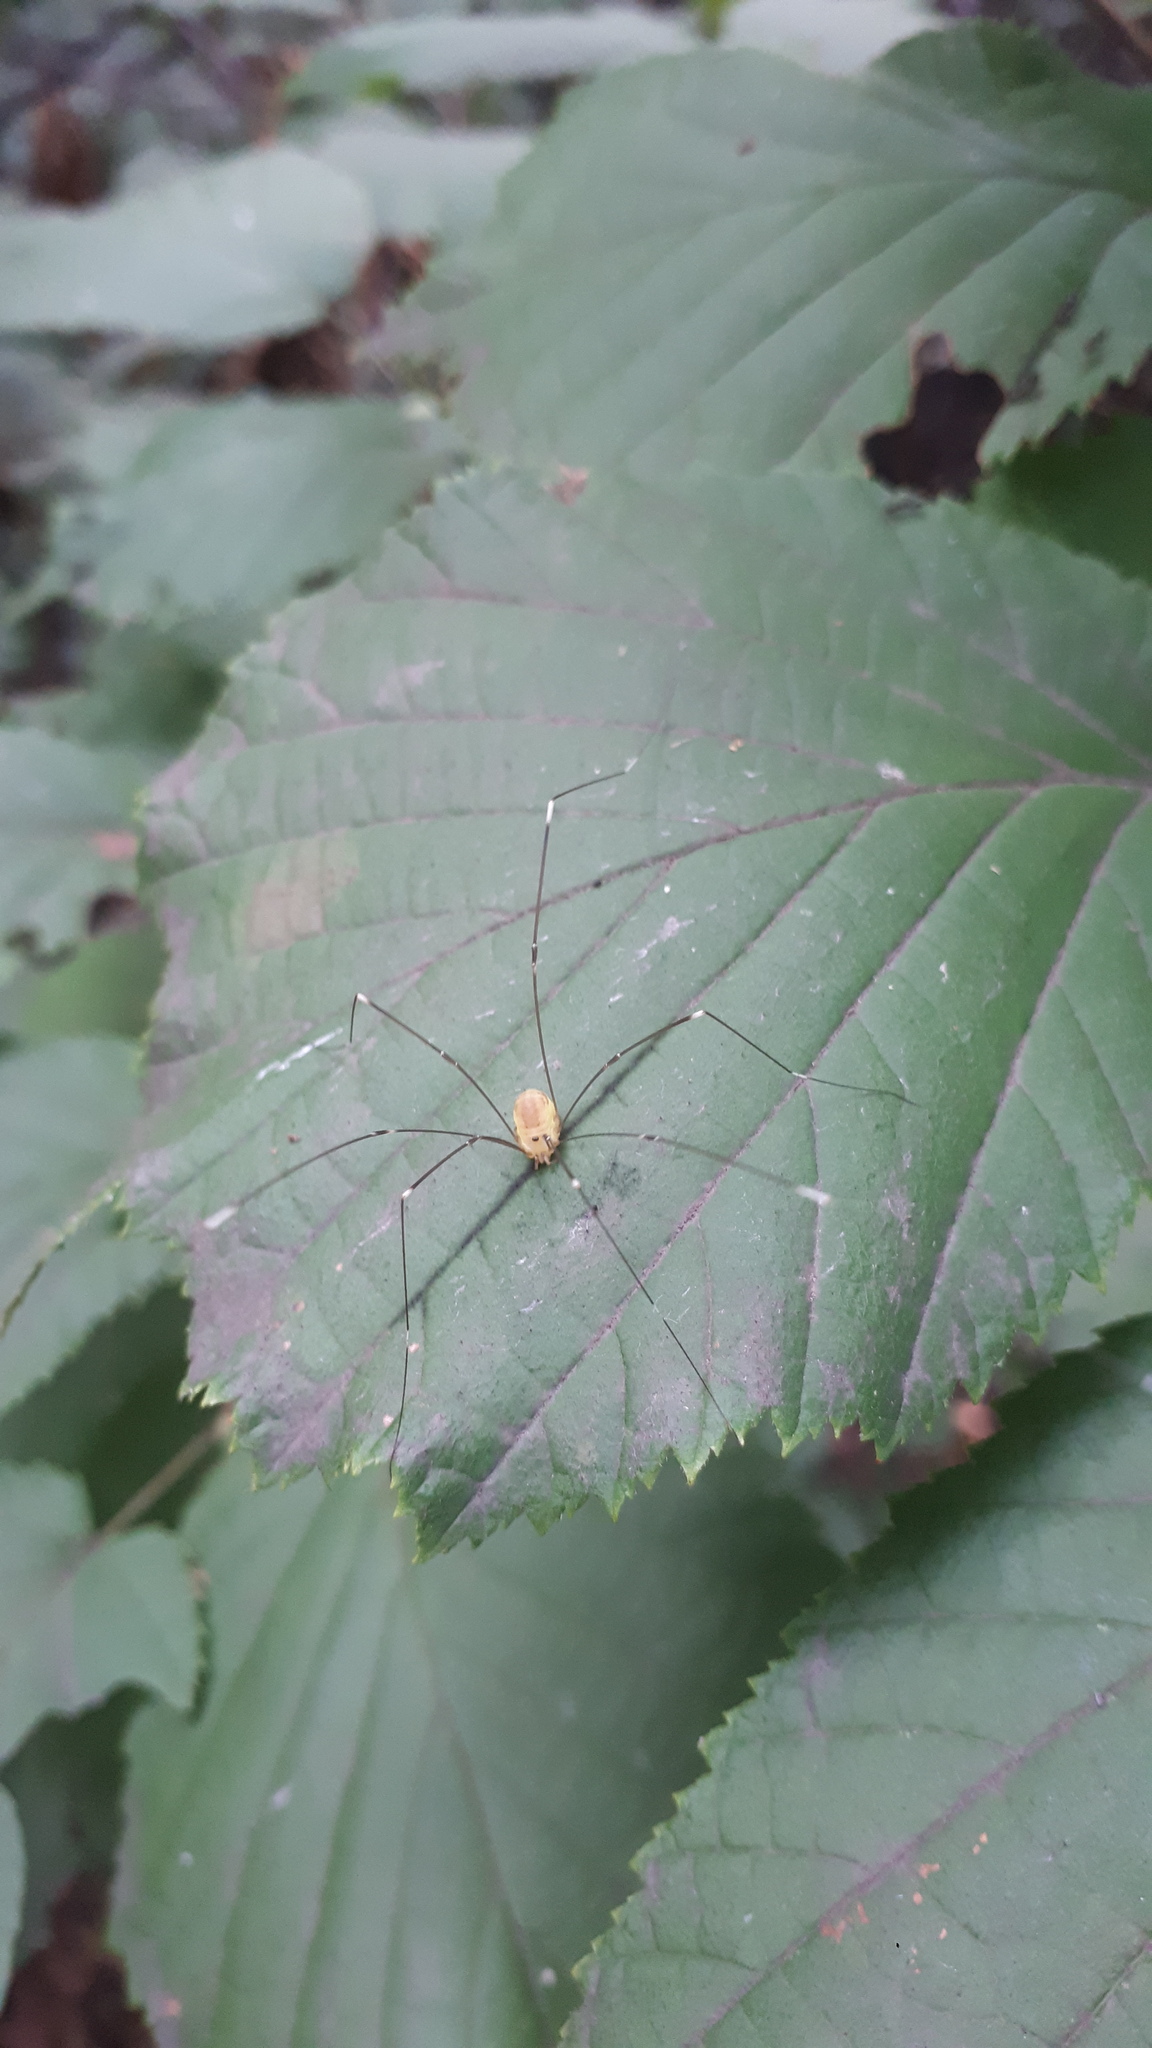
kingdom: Animalia
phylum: Arthropoda
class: Arachnida
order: Opiliones
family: Sclerosomatidae
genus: Leiobunum
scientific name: Leiobunum japonicum
